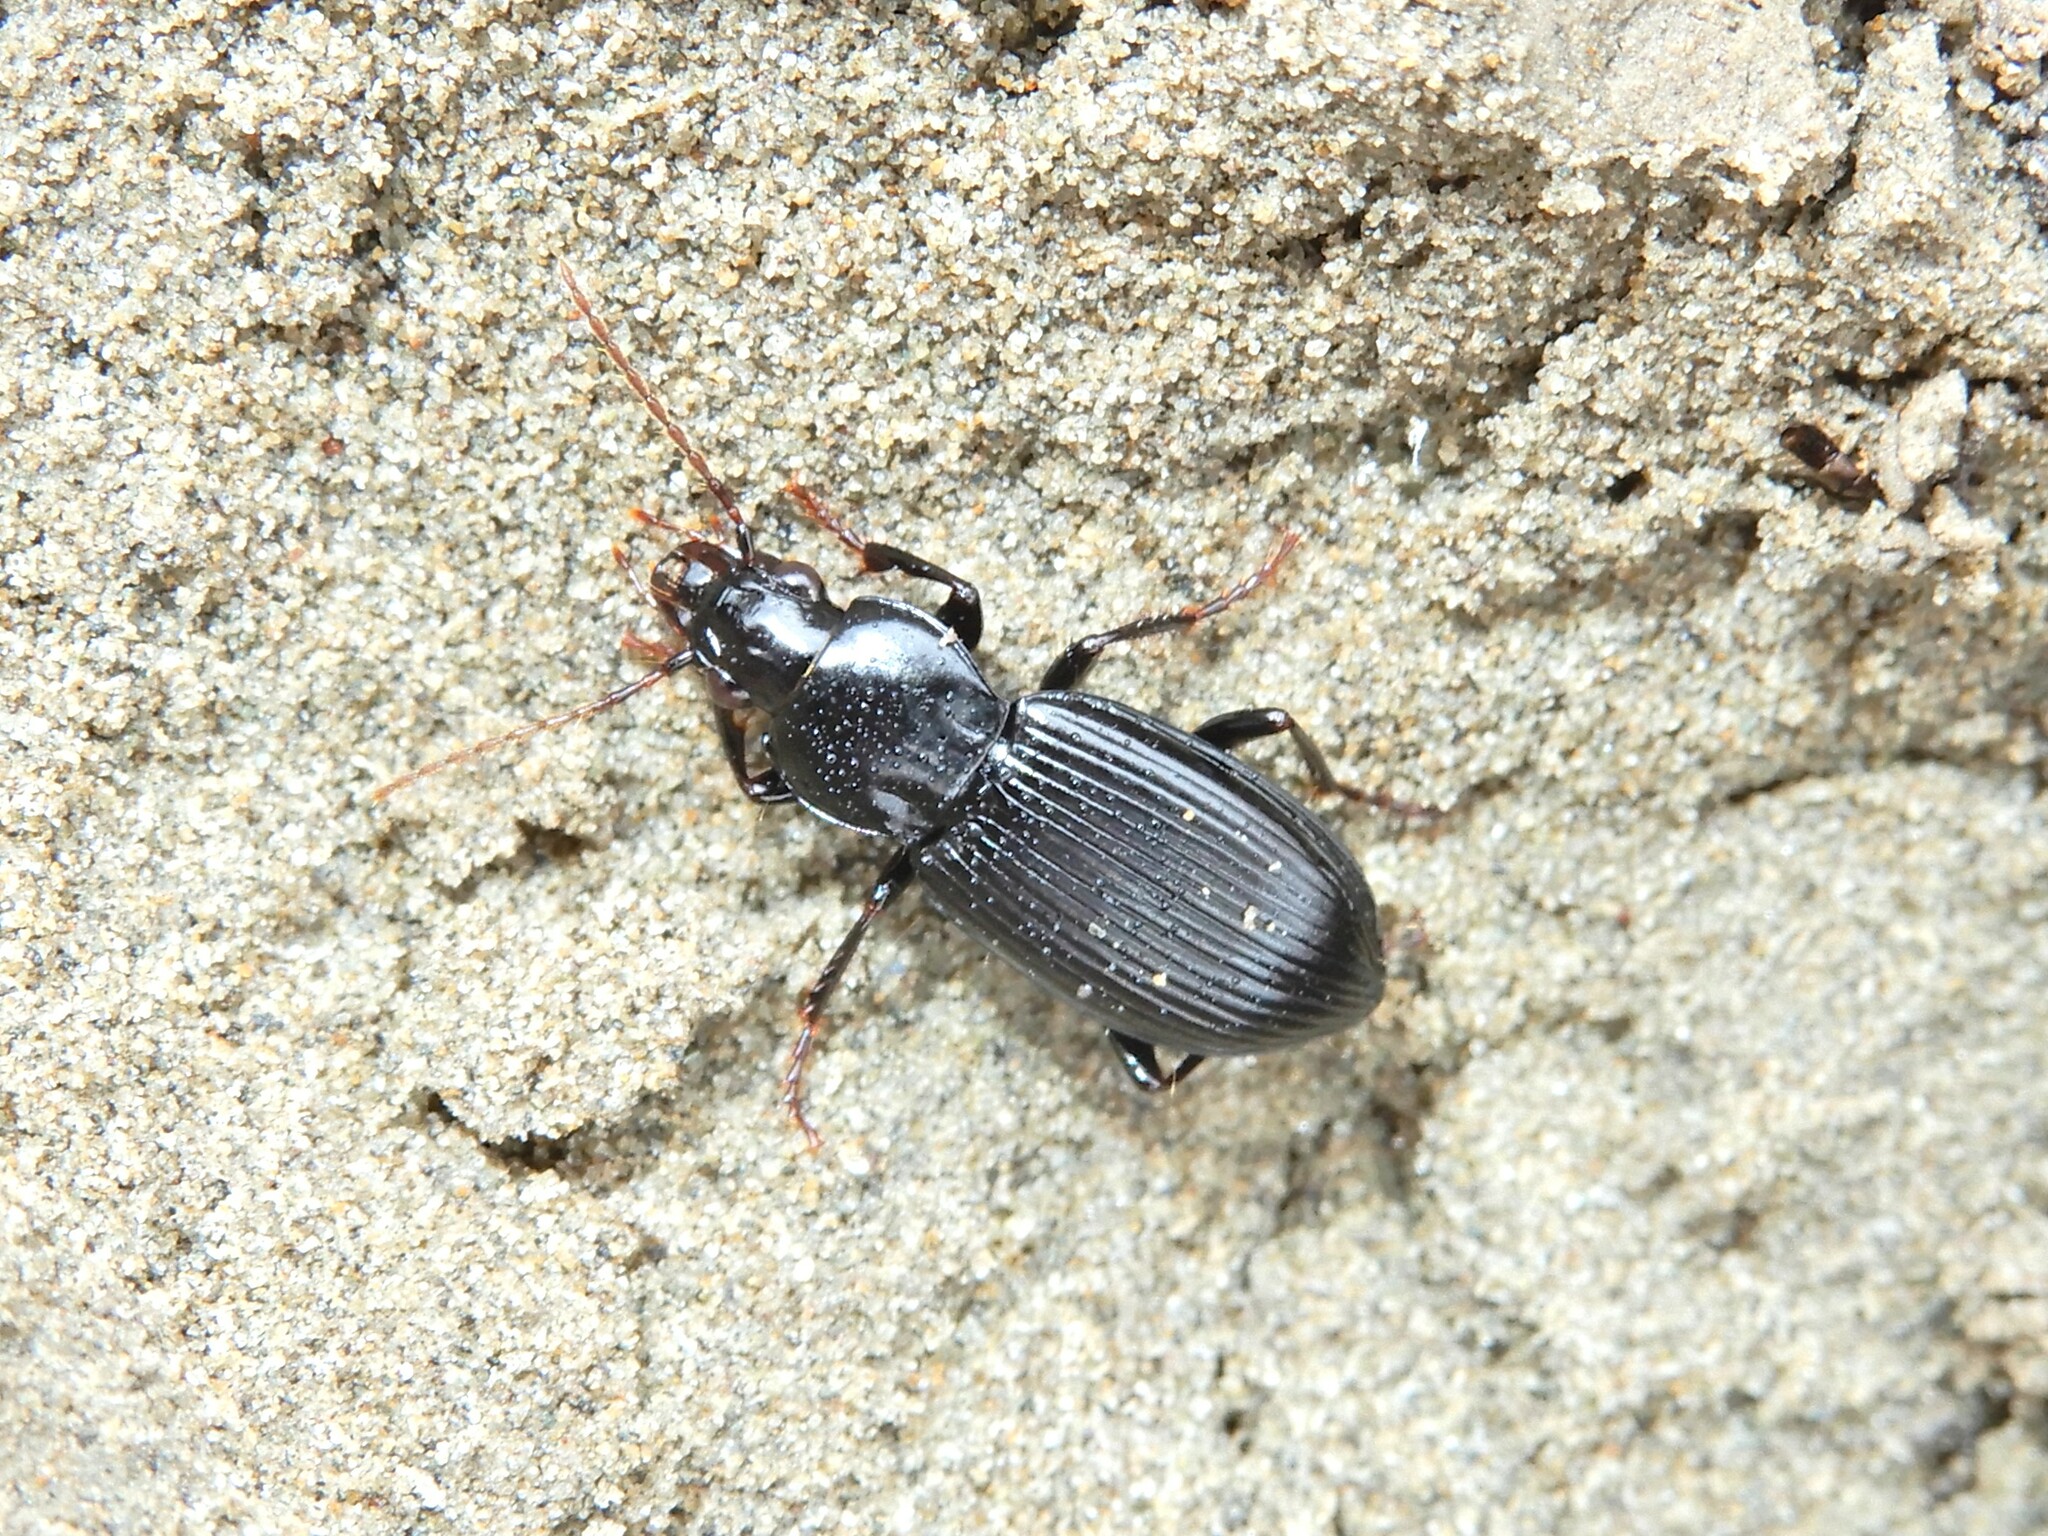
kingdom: Animalia
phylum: Arthropoda
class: Insecta
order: Coleoptera
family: Carabidae
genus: Rhytisternus
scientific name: Rhytisternus miser
